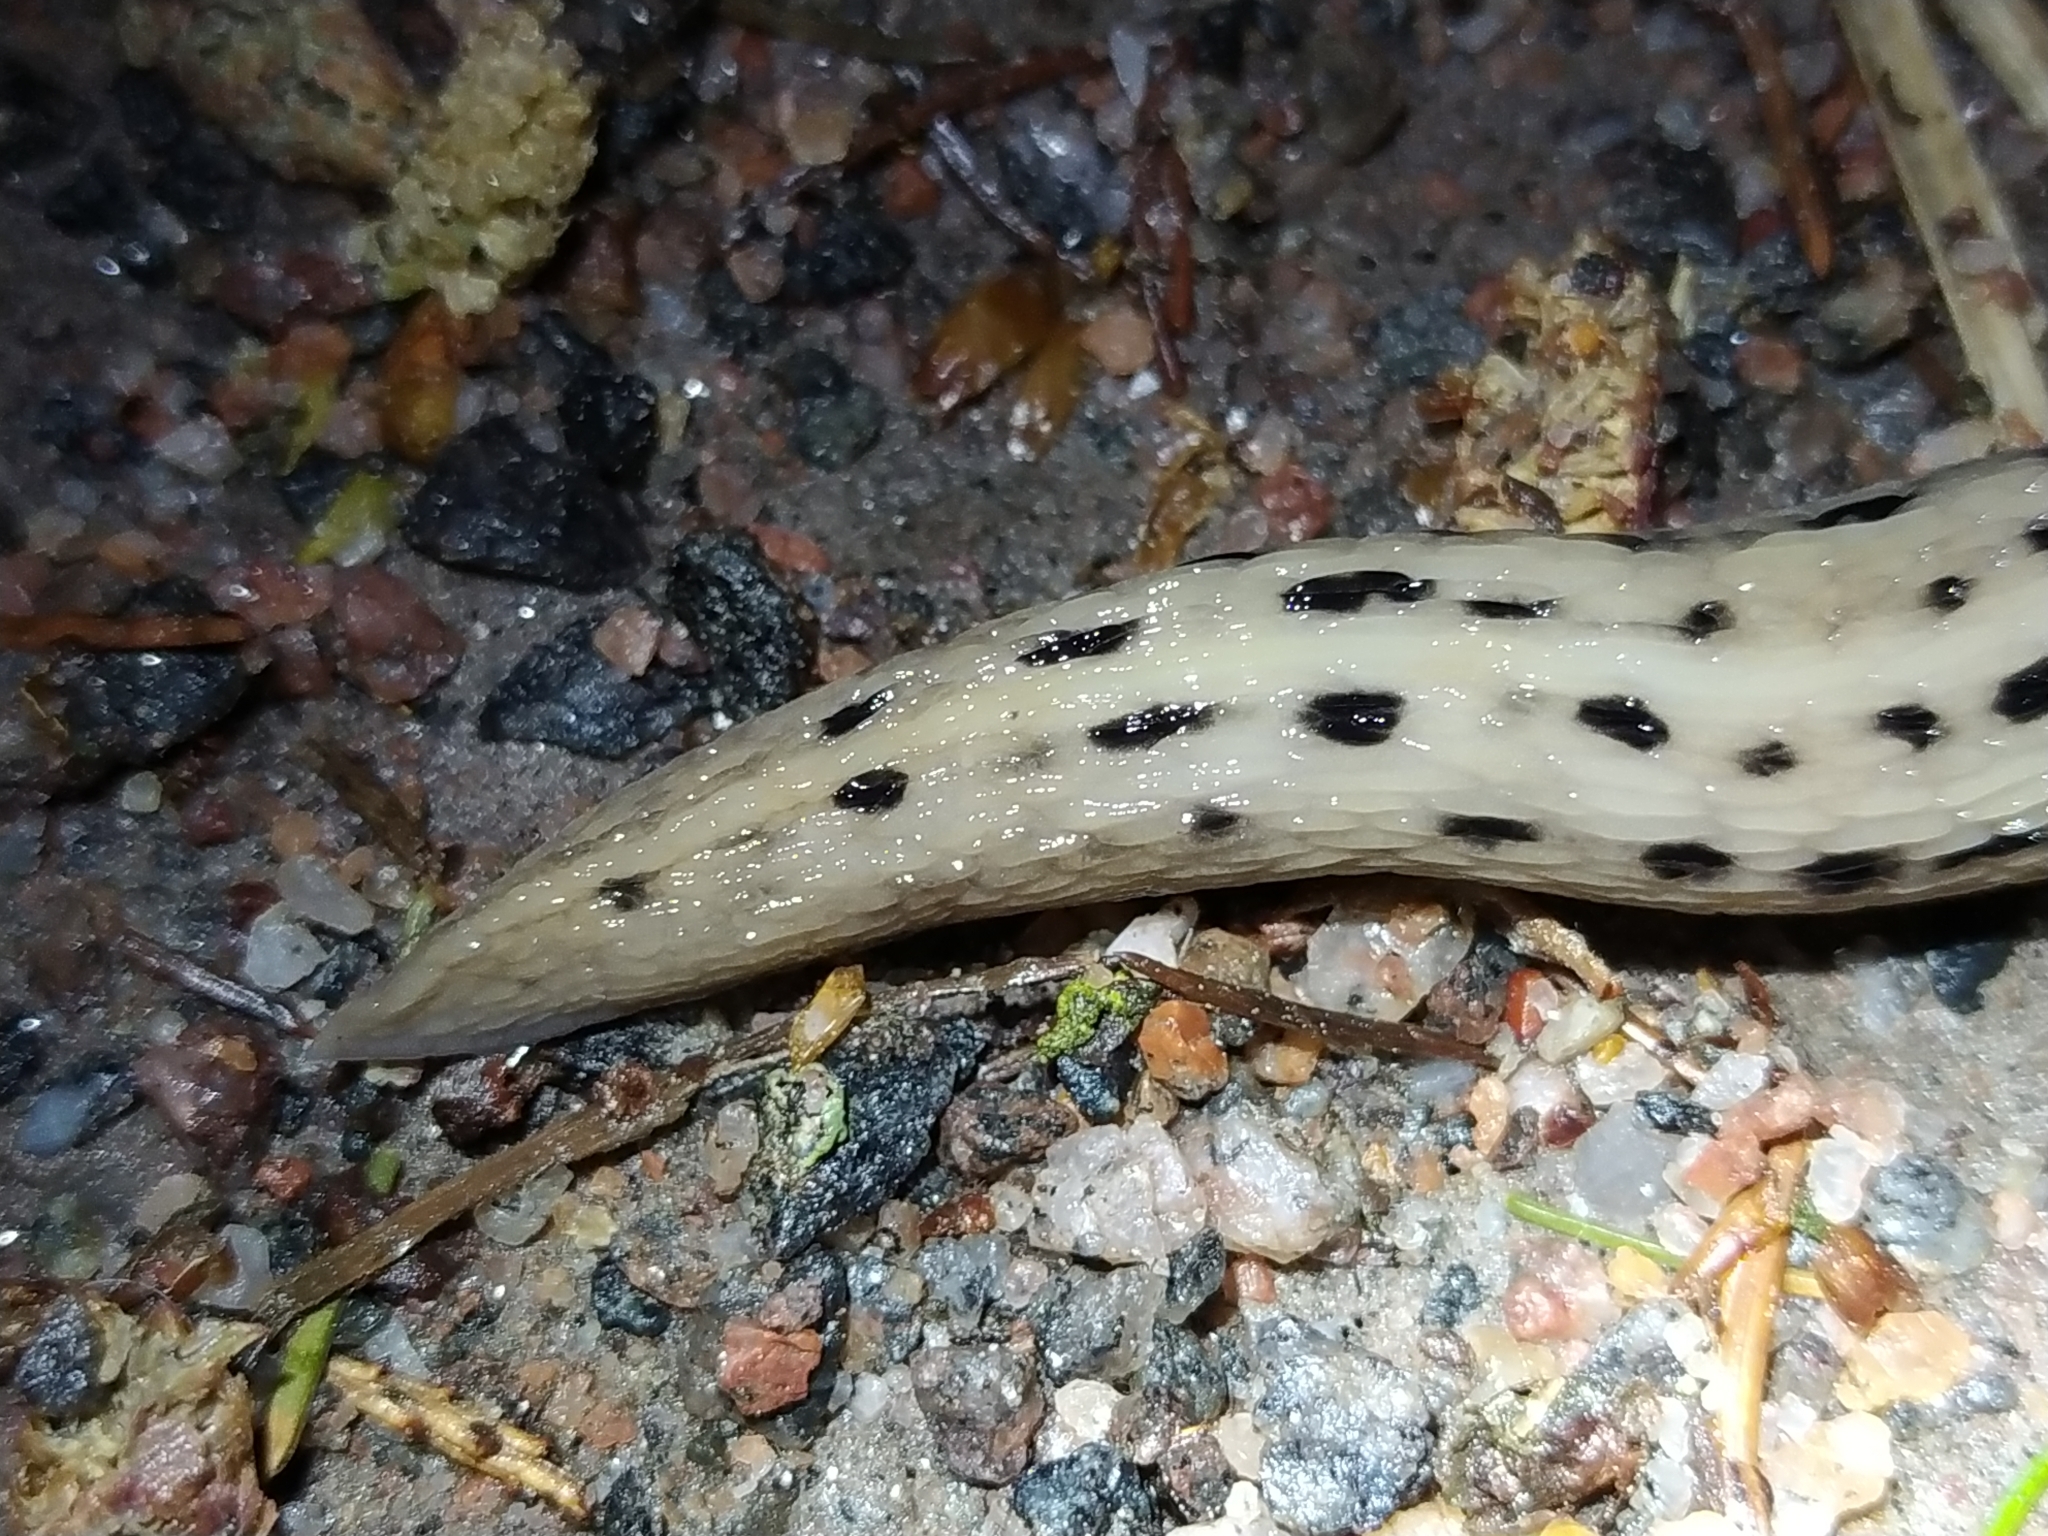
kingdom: Animalia
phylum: Mollusca
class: Gastropoda
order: Stylommatophora
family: Limacidae
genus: Limax
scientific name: Limax cinereoniger
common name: Ash-black slug
